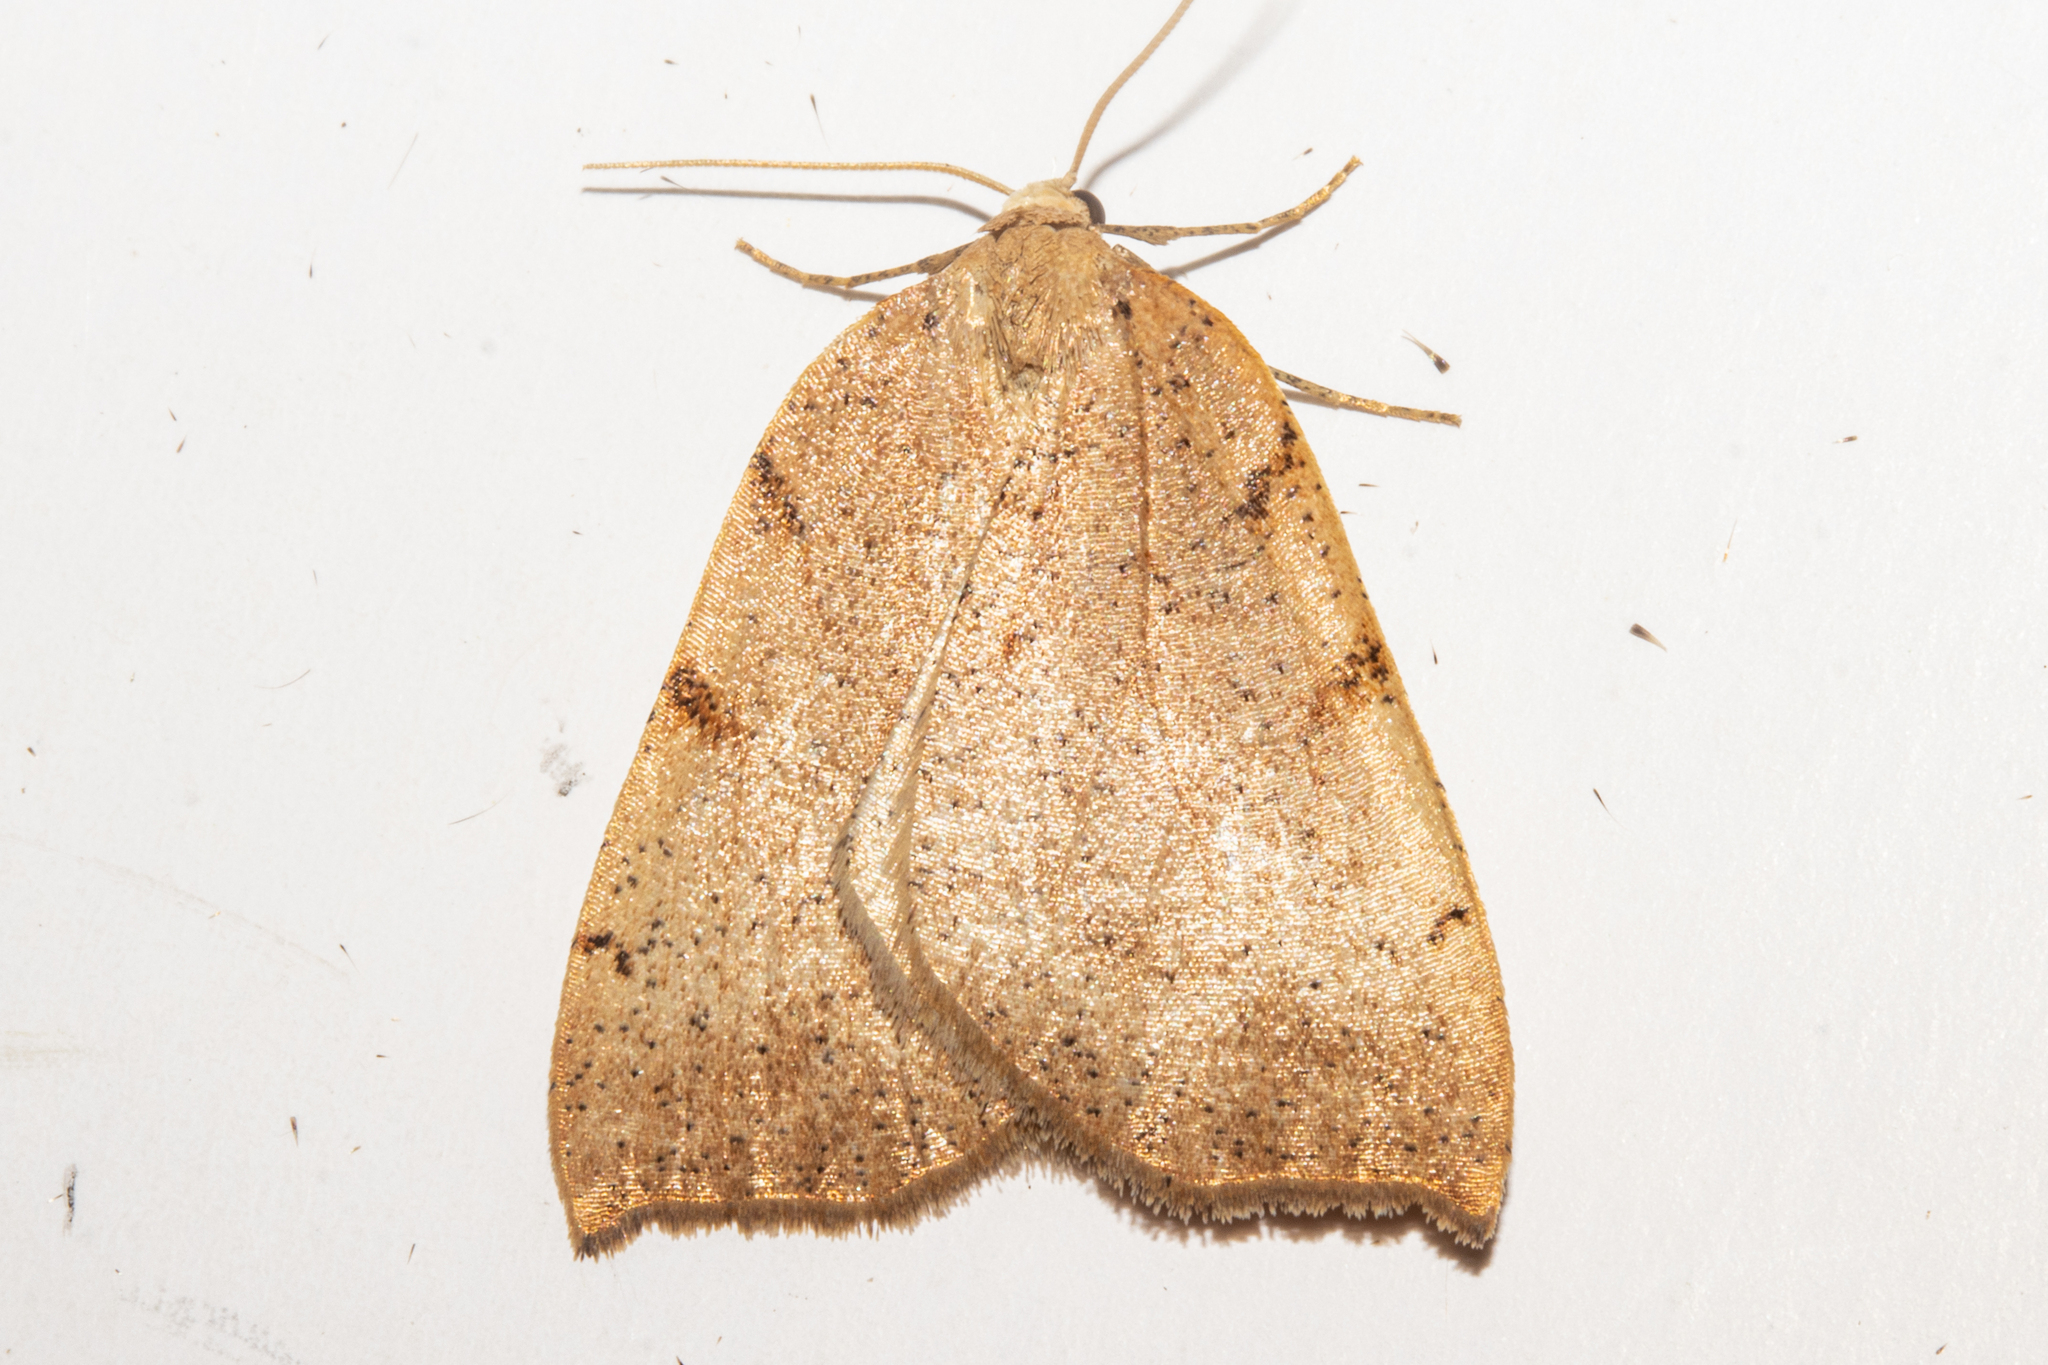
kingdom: Animalia
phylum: Arthropoda
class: Insecta
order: Lepidoptera
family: Geometridae
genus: Sestra
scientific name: Sestra humeraria
